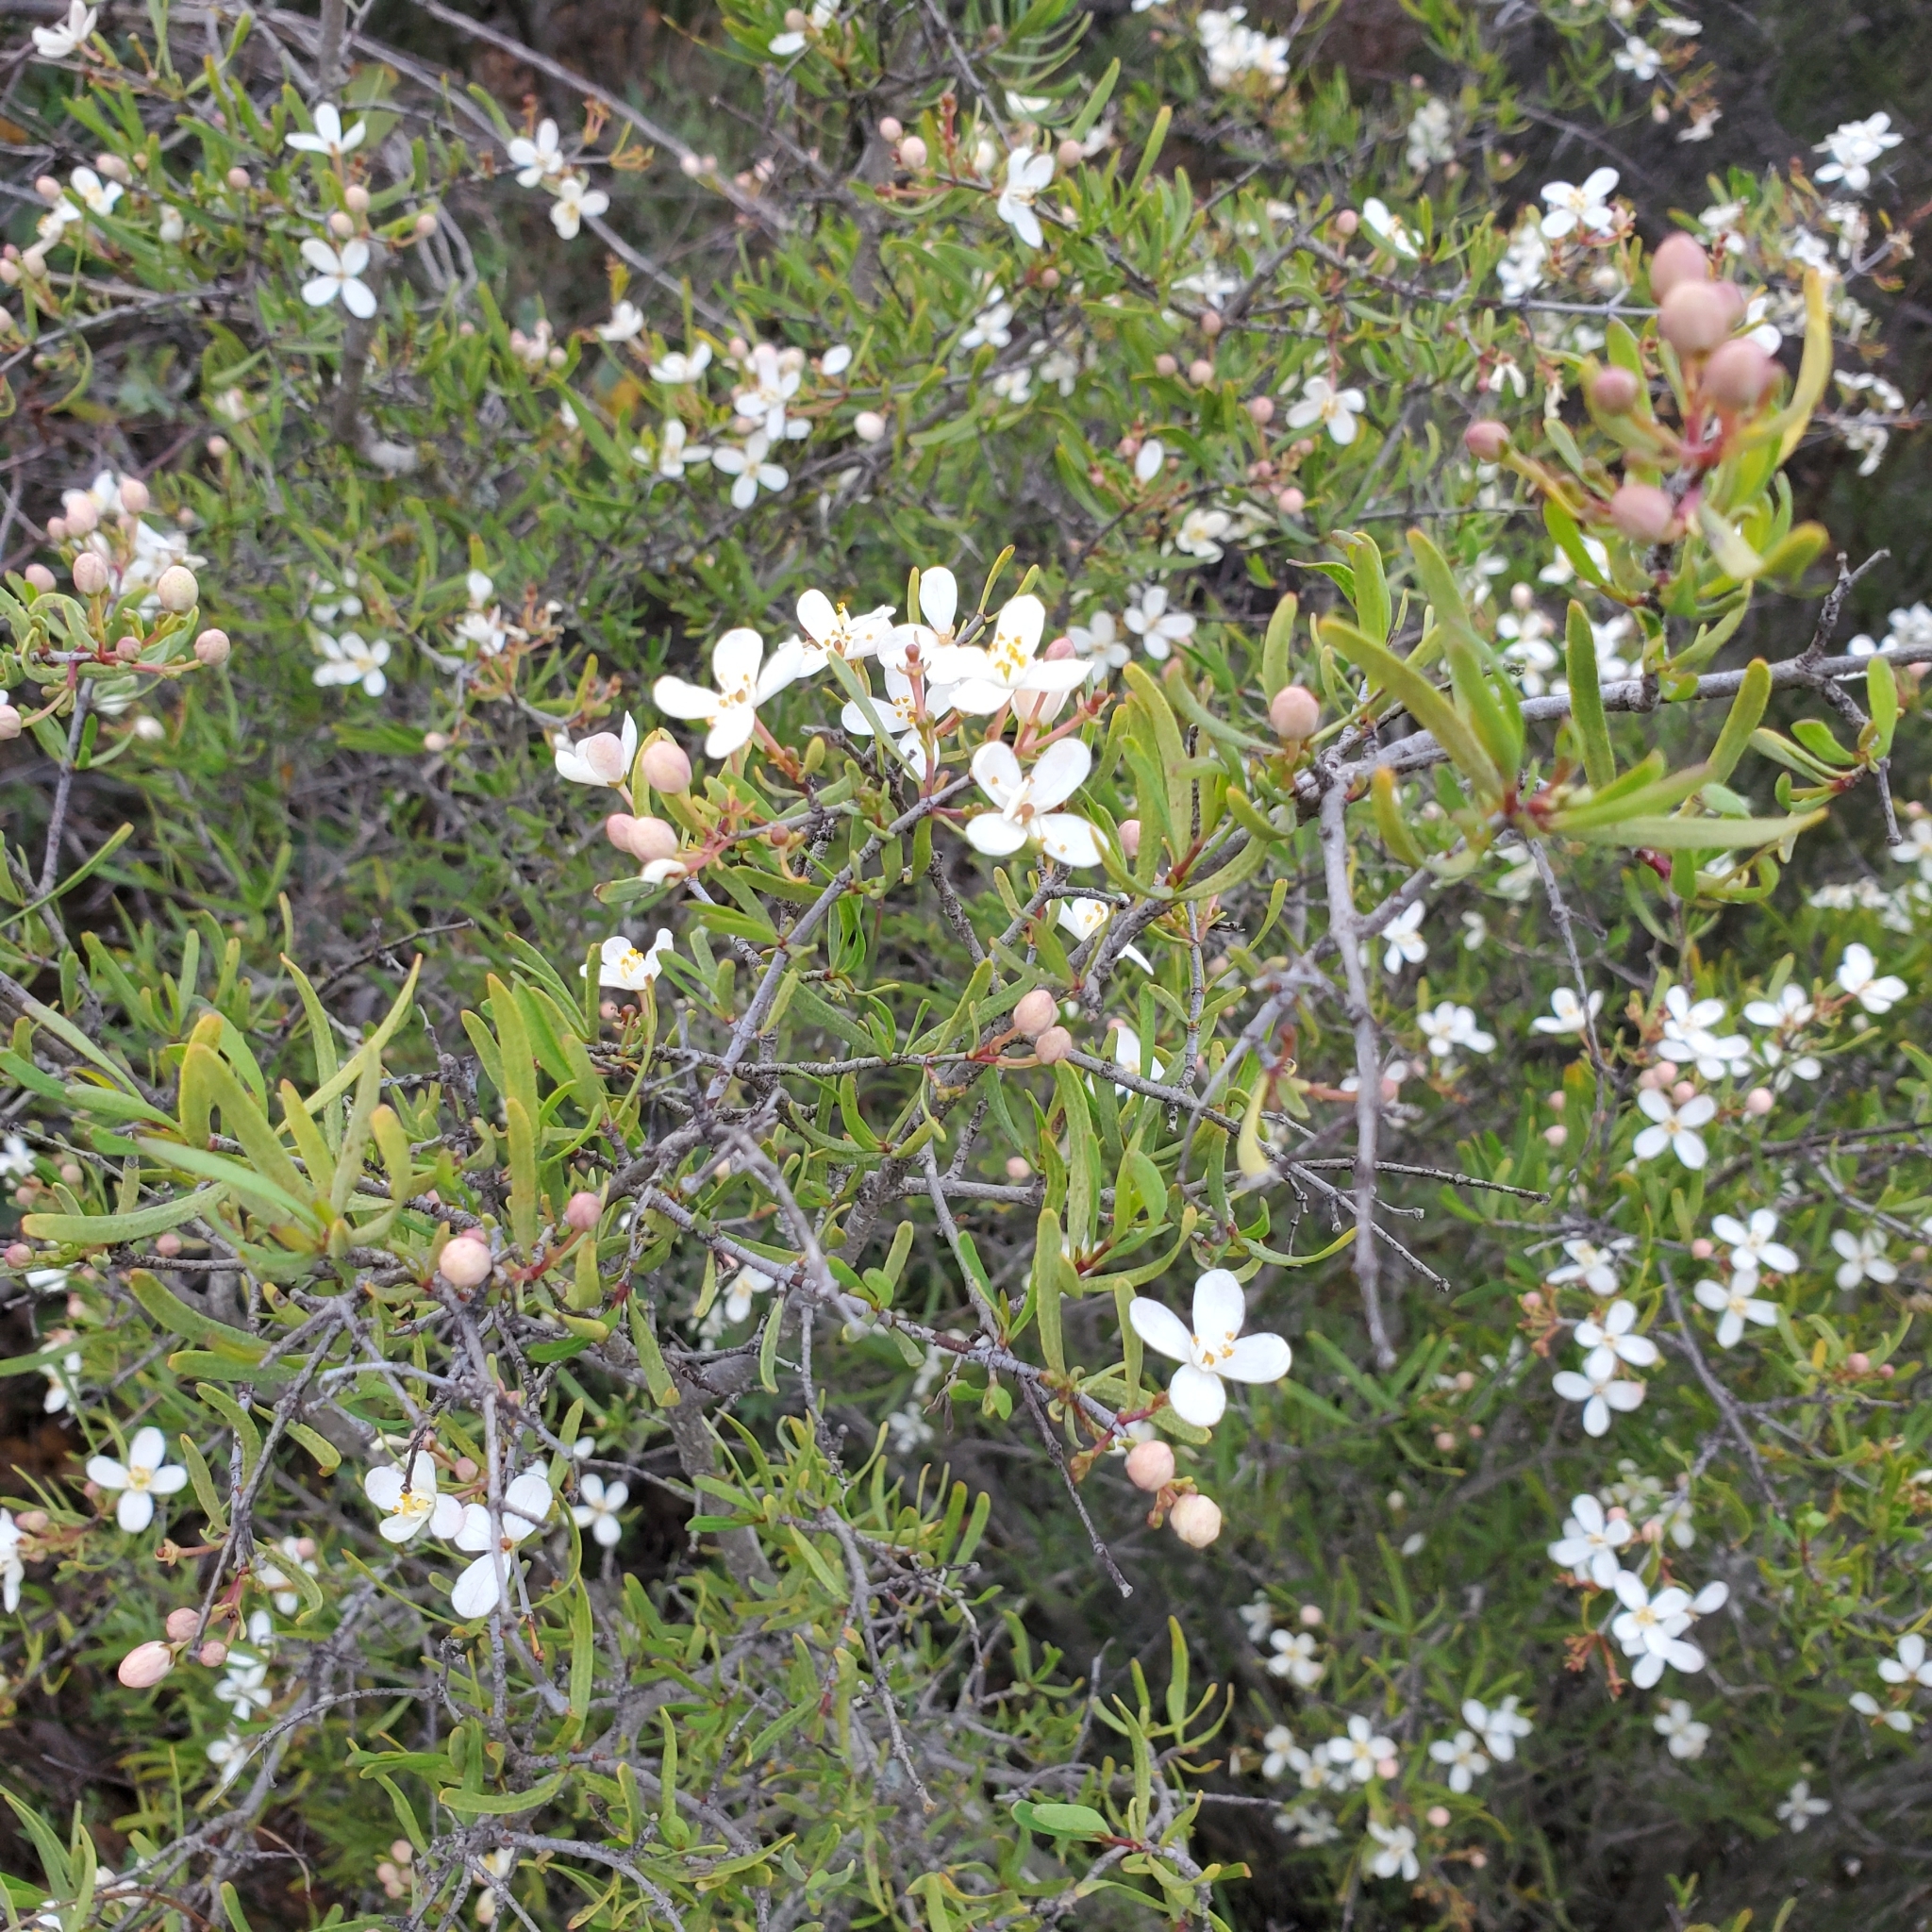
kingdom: Plantae
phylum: Tracheophyta
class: Magnoliopsida
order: Sapindales
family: Rutaceae
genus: Cneoridium
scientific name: Cneoridium dumosum
